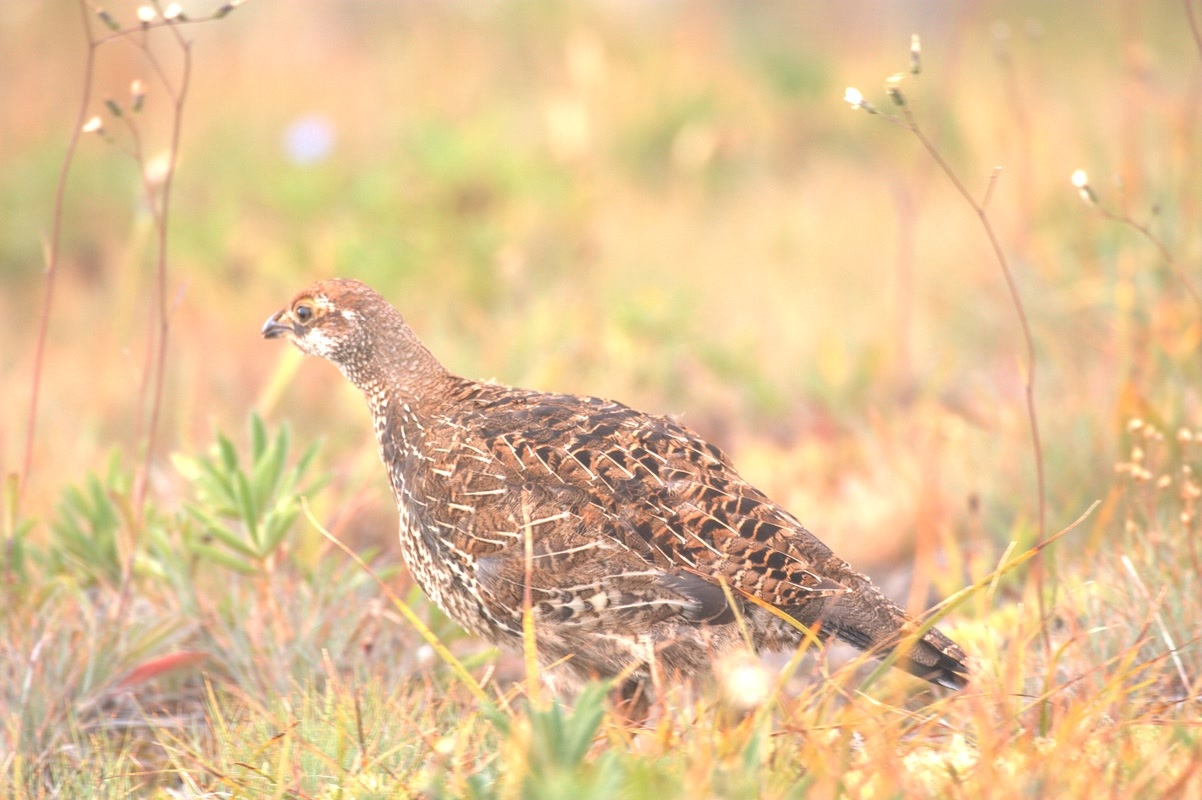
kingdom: Animalia
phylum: Chordata
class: Aves
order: Galliformes
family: Phasianidae
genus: Dendragapus
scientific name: Dendragapus fuliginosus
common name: Sooty grouse
